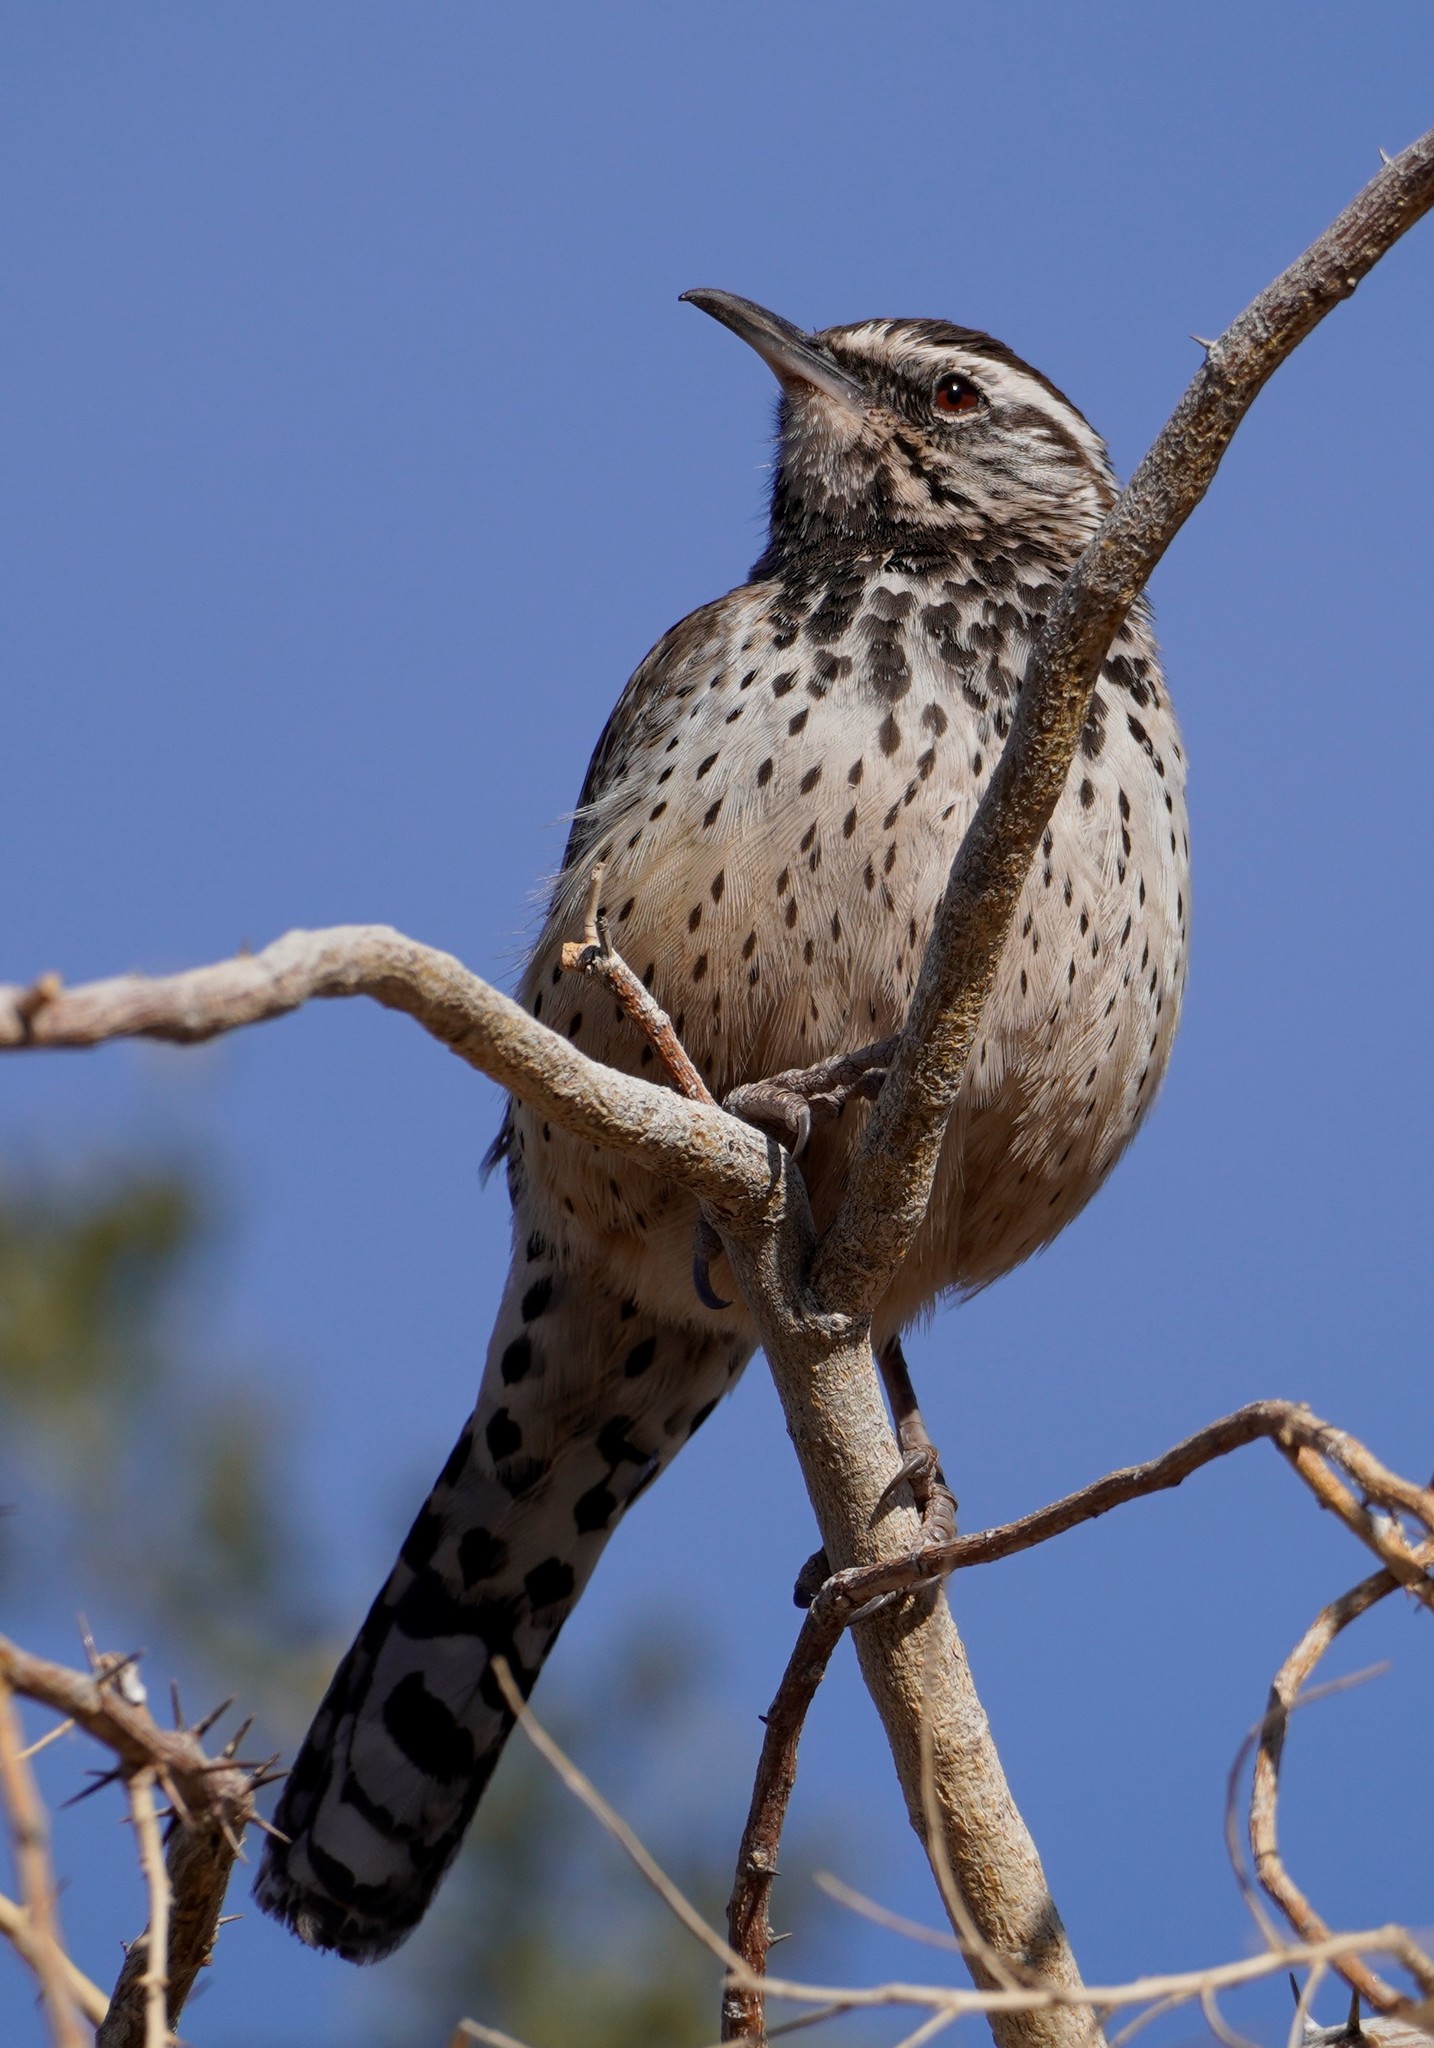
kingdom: Animalia
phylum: Chordata
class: Aves
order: Passeriformes
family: Troglodytidae
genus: Campylorhynchus
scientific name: Campylorhynchus brunneicapillus
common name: Cactus wren
